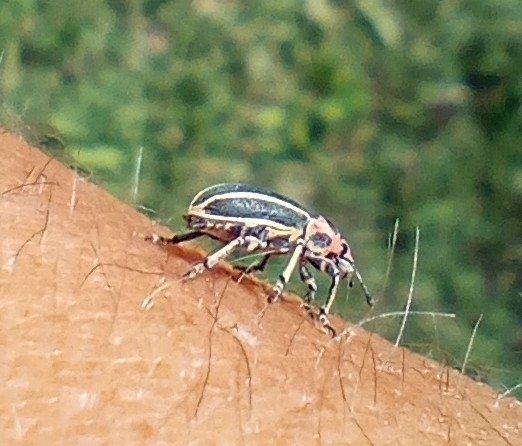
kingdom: Animalia
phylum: Arthropoda
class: Insecta
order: Coleoptera
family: Curculionidae
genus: Eudiagogus
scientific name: Eudiagogus episcopalis
